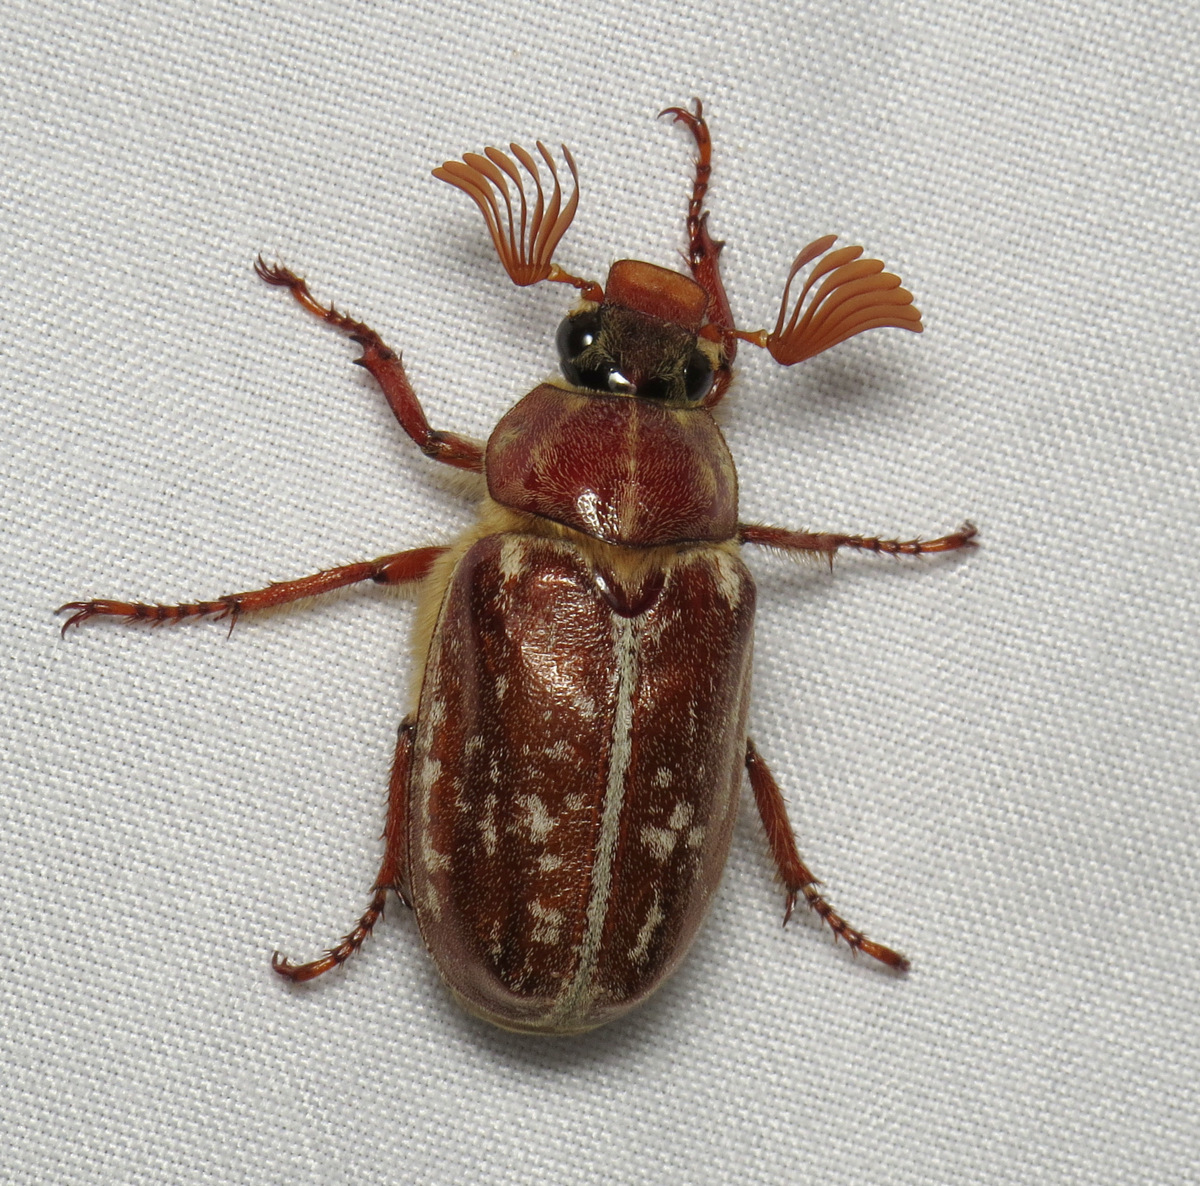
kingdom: Animalia
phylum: Arthropoda
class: Insecta
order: Coleoptera
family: Scarabaeidae
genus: Polyphylla
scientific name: Polyphylla variolosa
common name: Variegated june beetle
